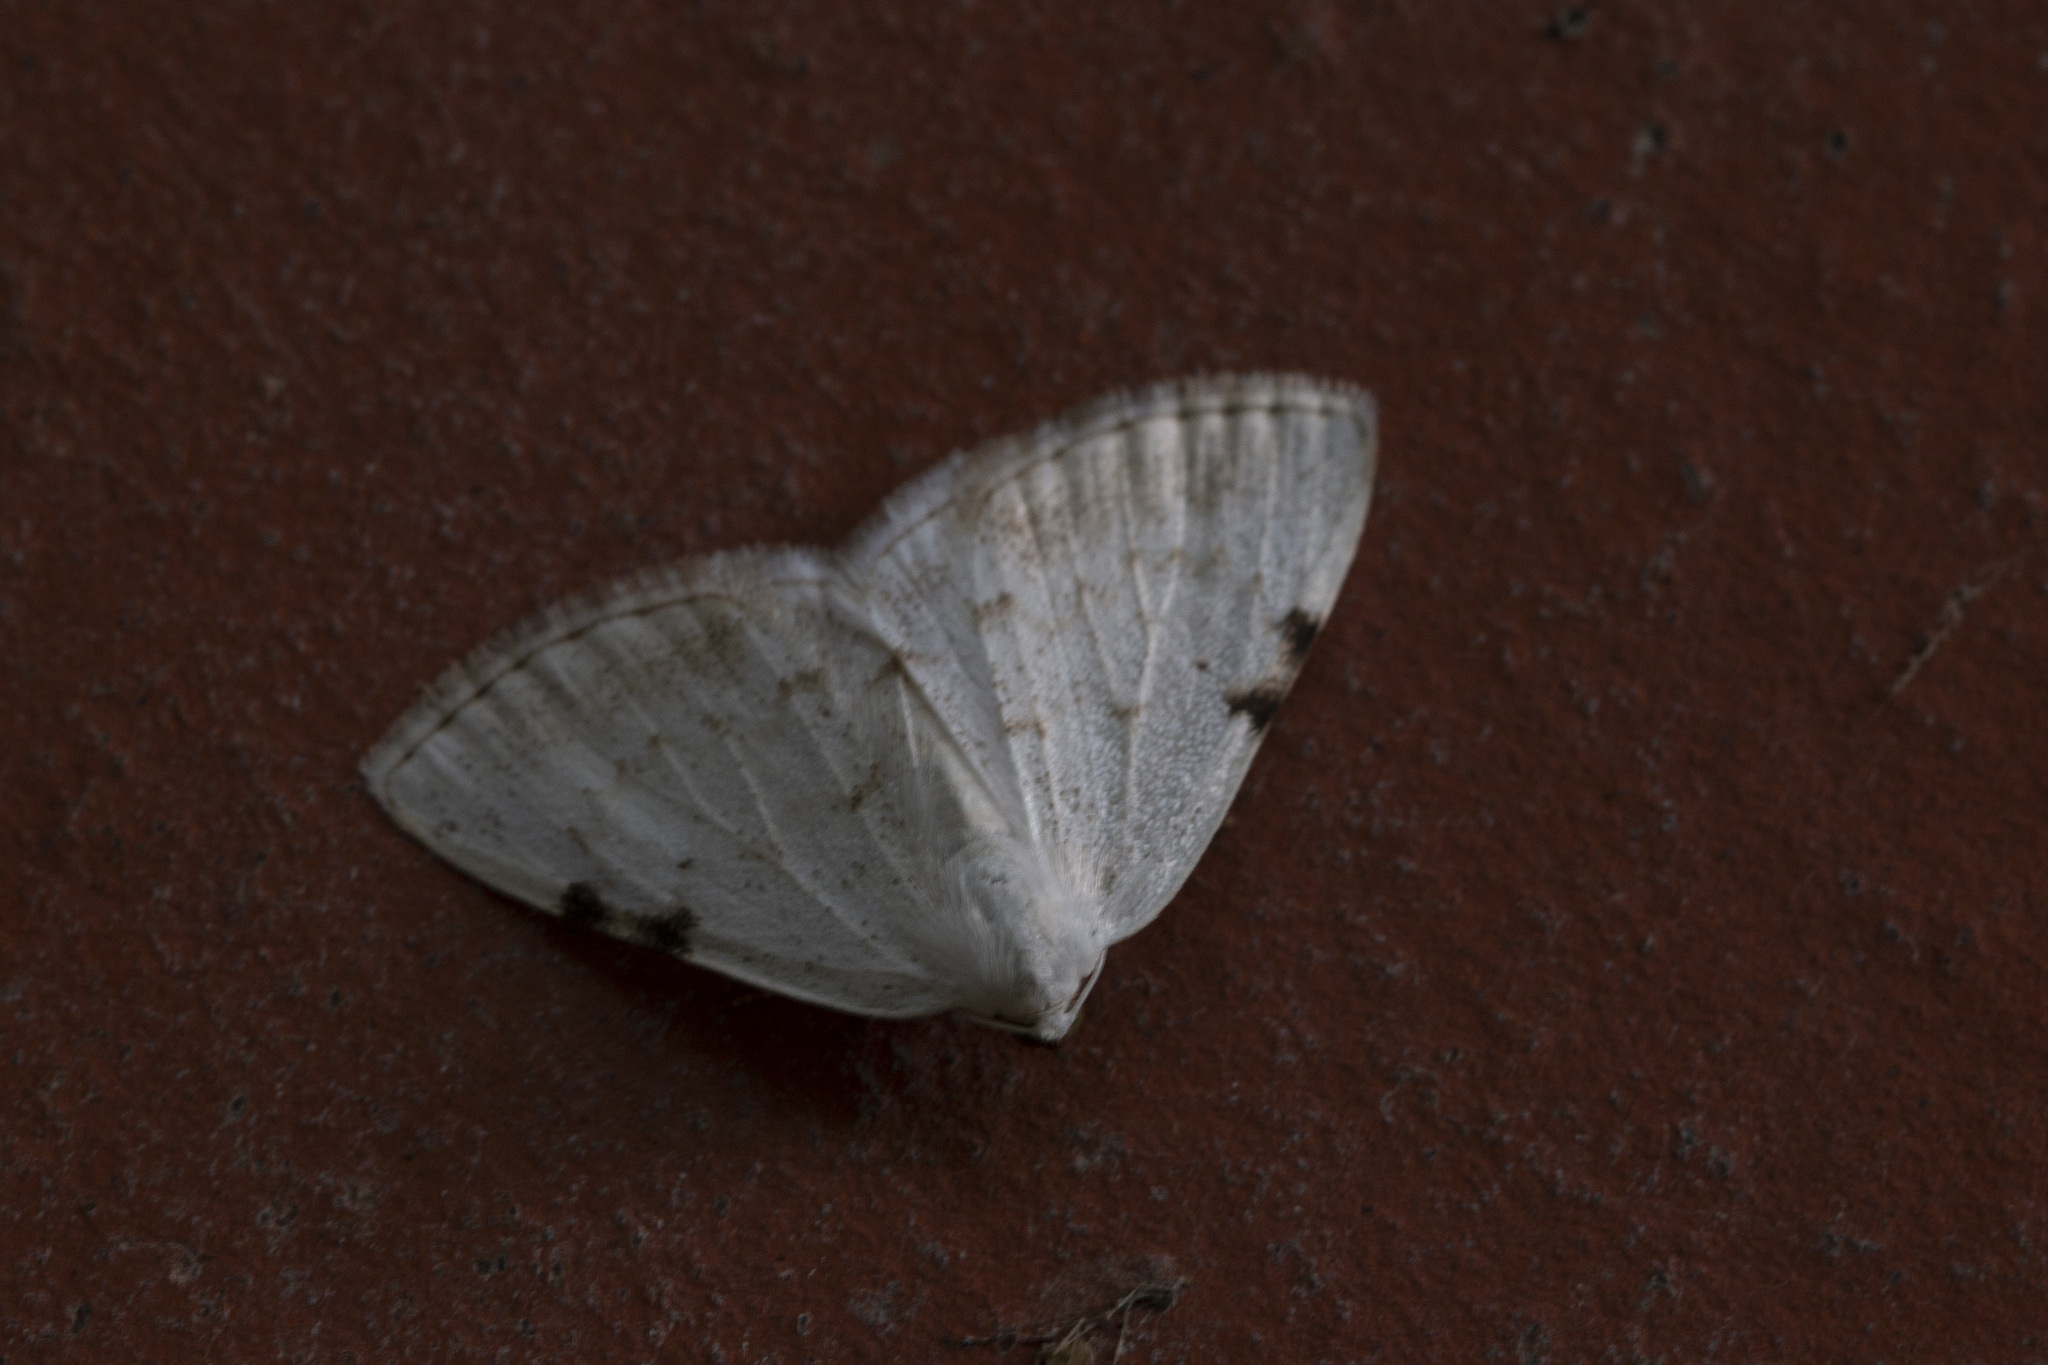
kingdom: Animalia
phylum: Arthropoda
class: Insecta
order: Lepidoptera
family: Geometridae
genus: Lomographa
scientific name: Lomographa bimaculata
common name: White-pinion spotted
